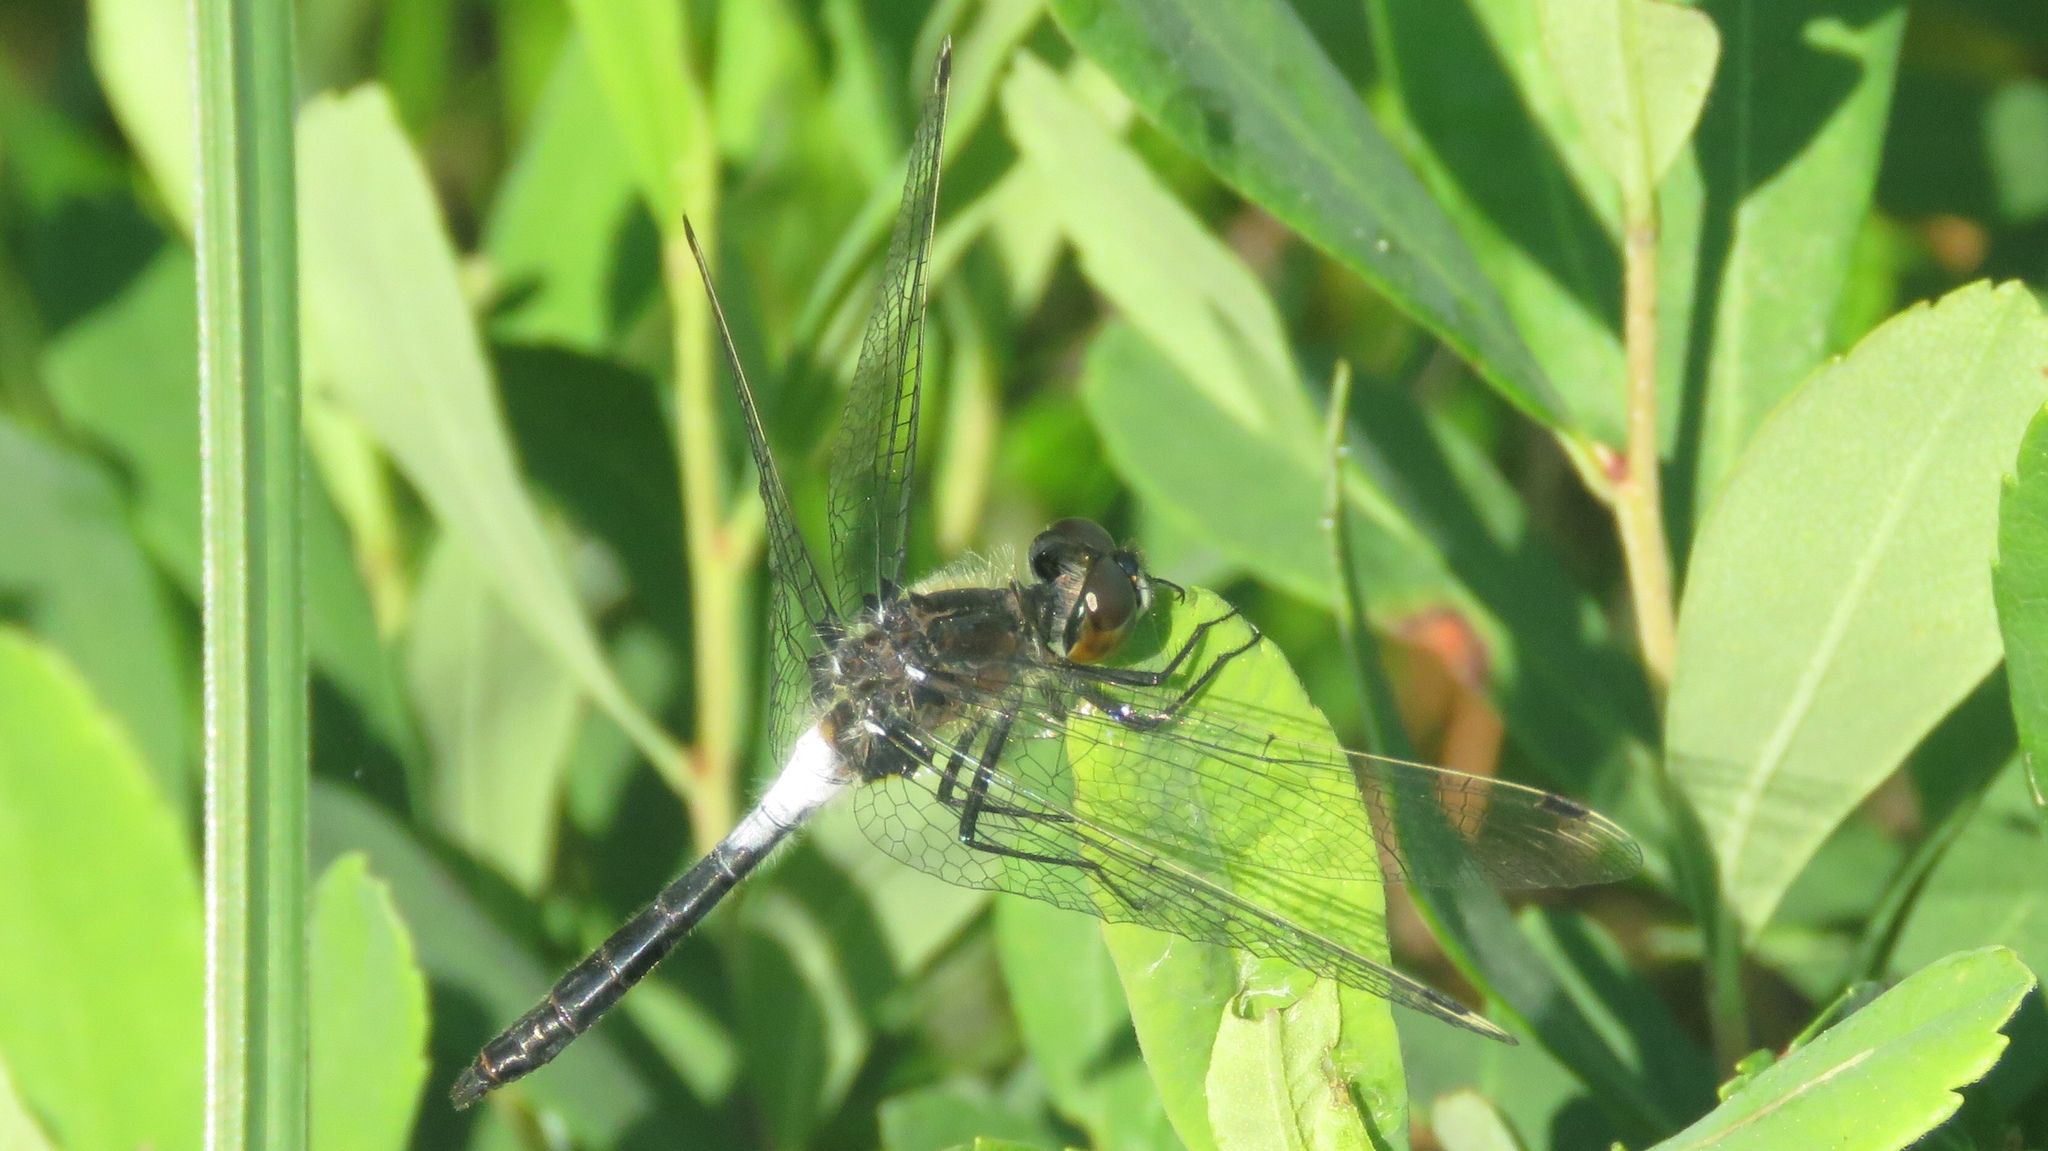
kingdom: Animalia
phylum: Arthropoda
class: Insecta
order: Odonata
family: Libellulidae
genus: Leucorrhinia
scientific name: Leucorrhinia frigida
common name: Frosted whiteface
